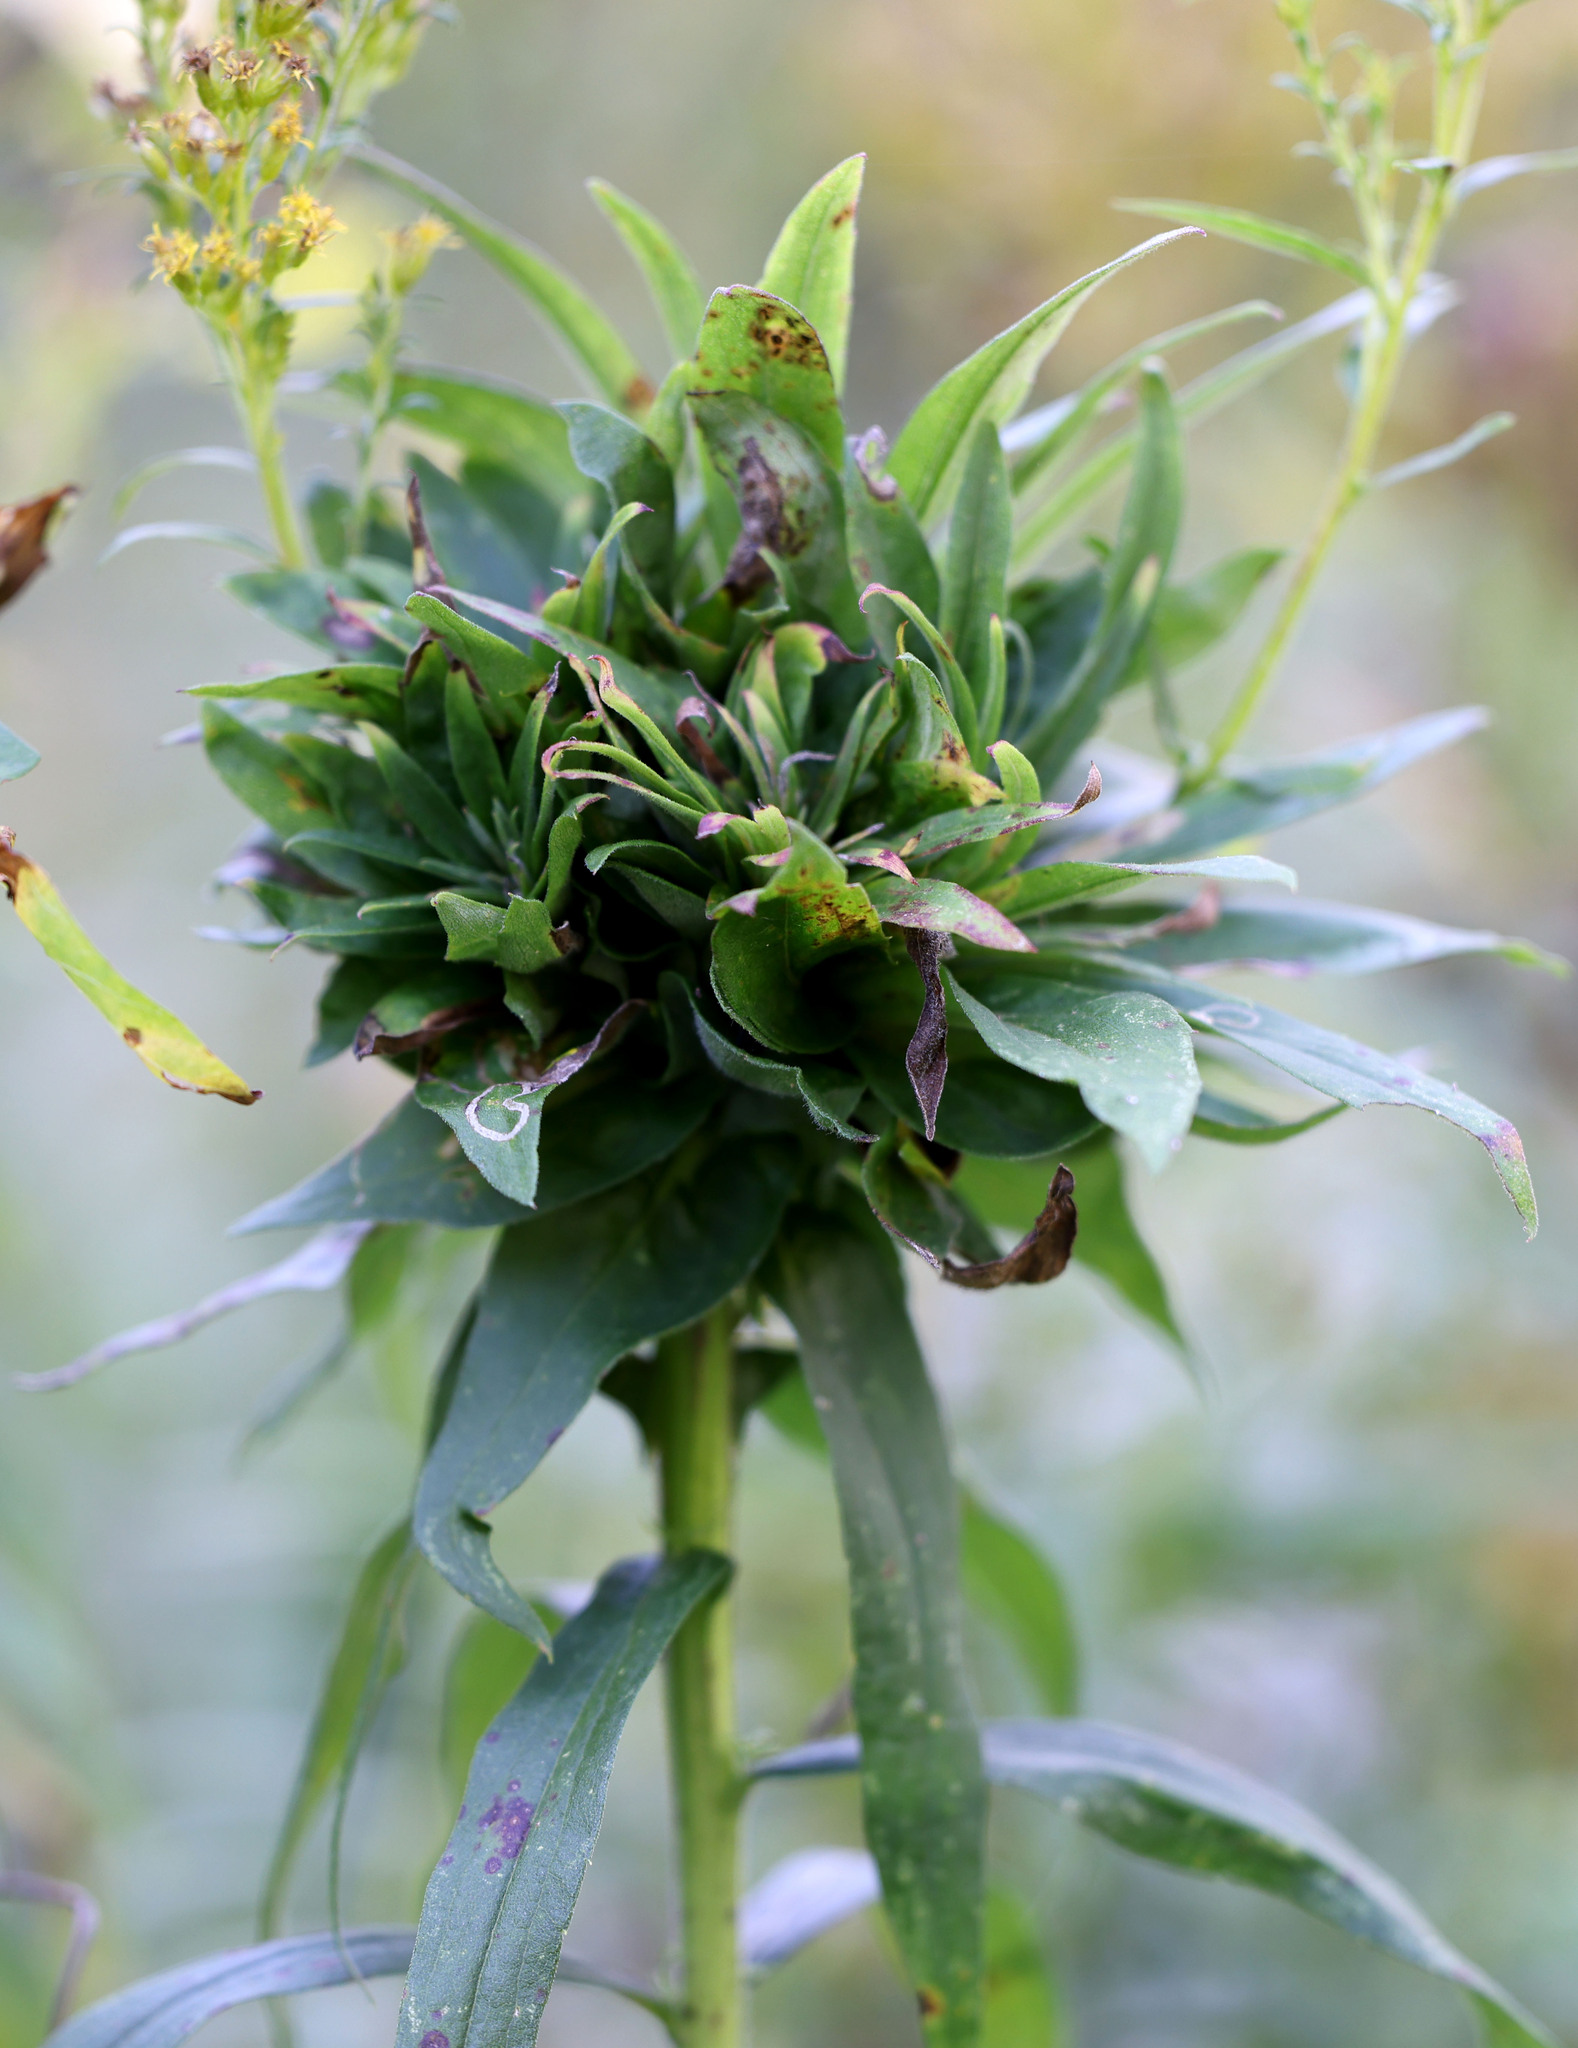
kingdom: Animalia
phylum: Arthropoda
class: Insecta
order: Diptera
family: Cecidomyiidae
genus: Rhopalomyia
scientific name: Rhopalomyia solidaginis
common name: Goldenrod bunch gall midge
